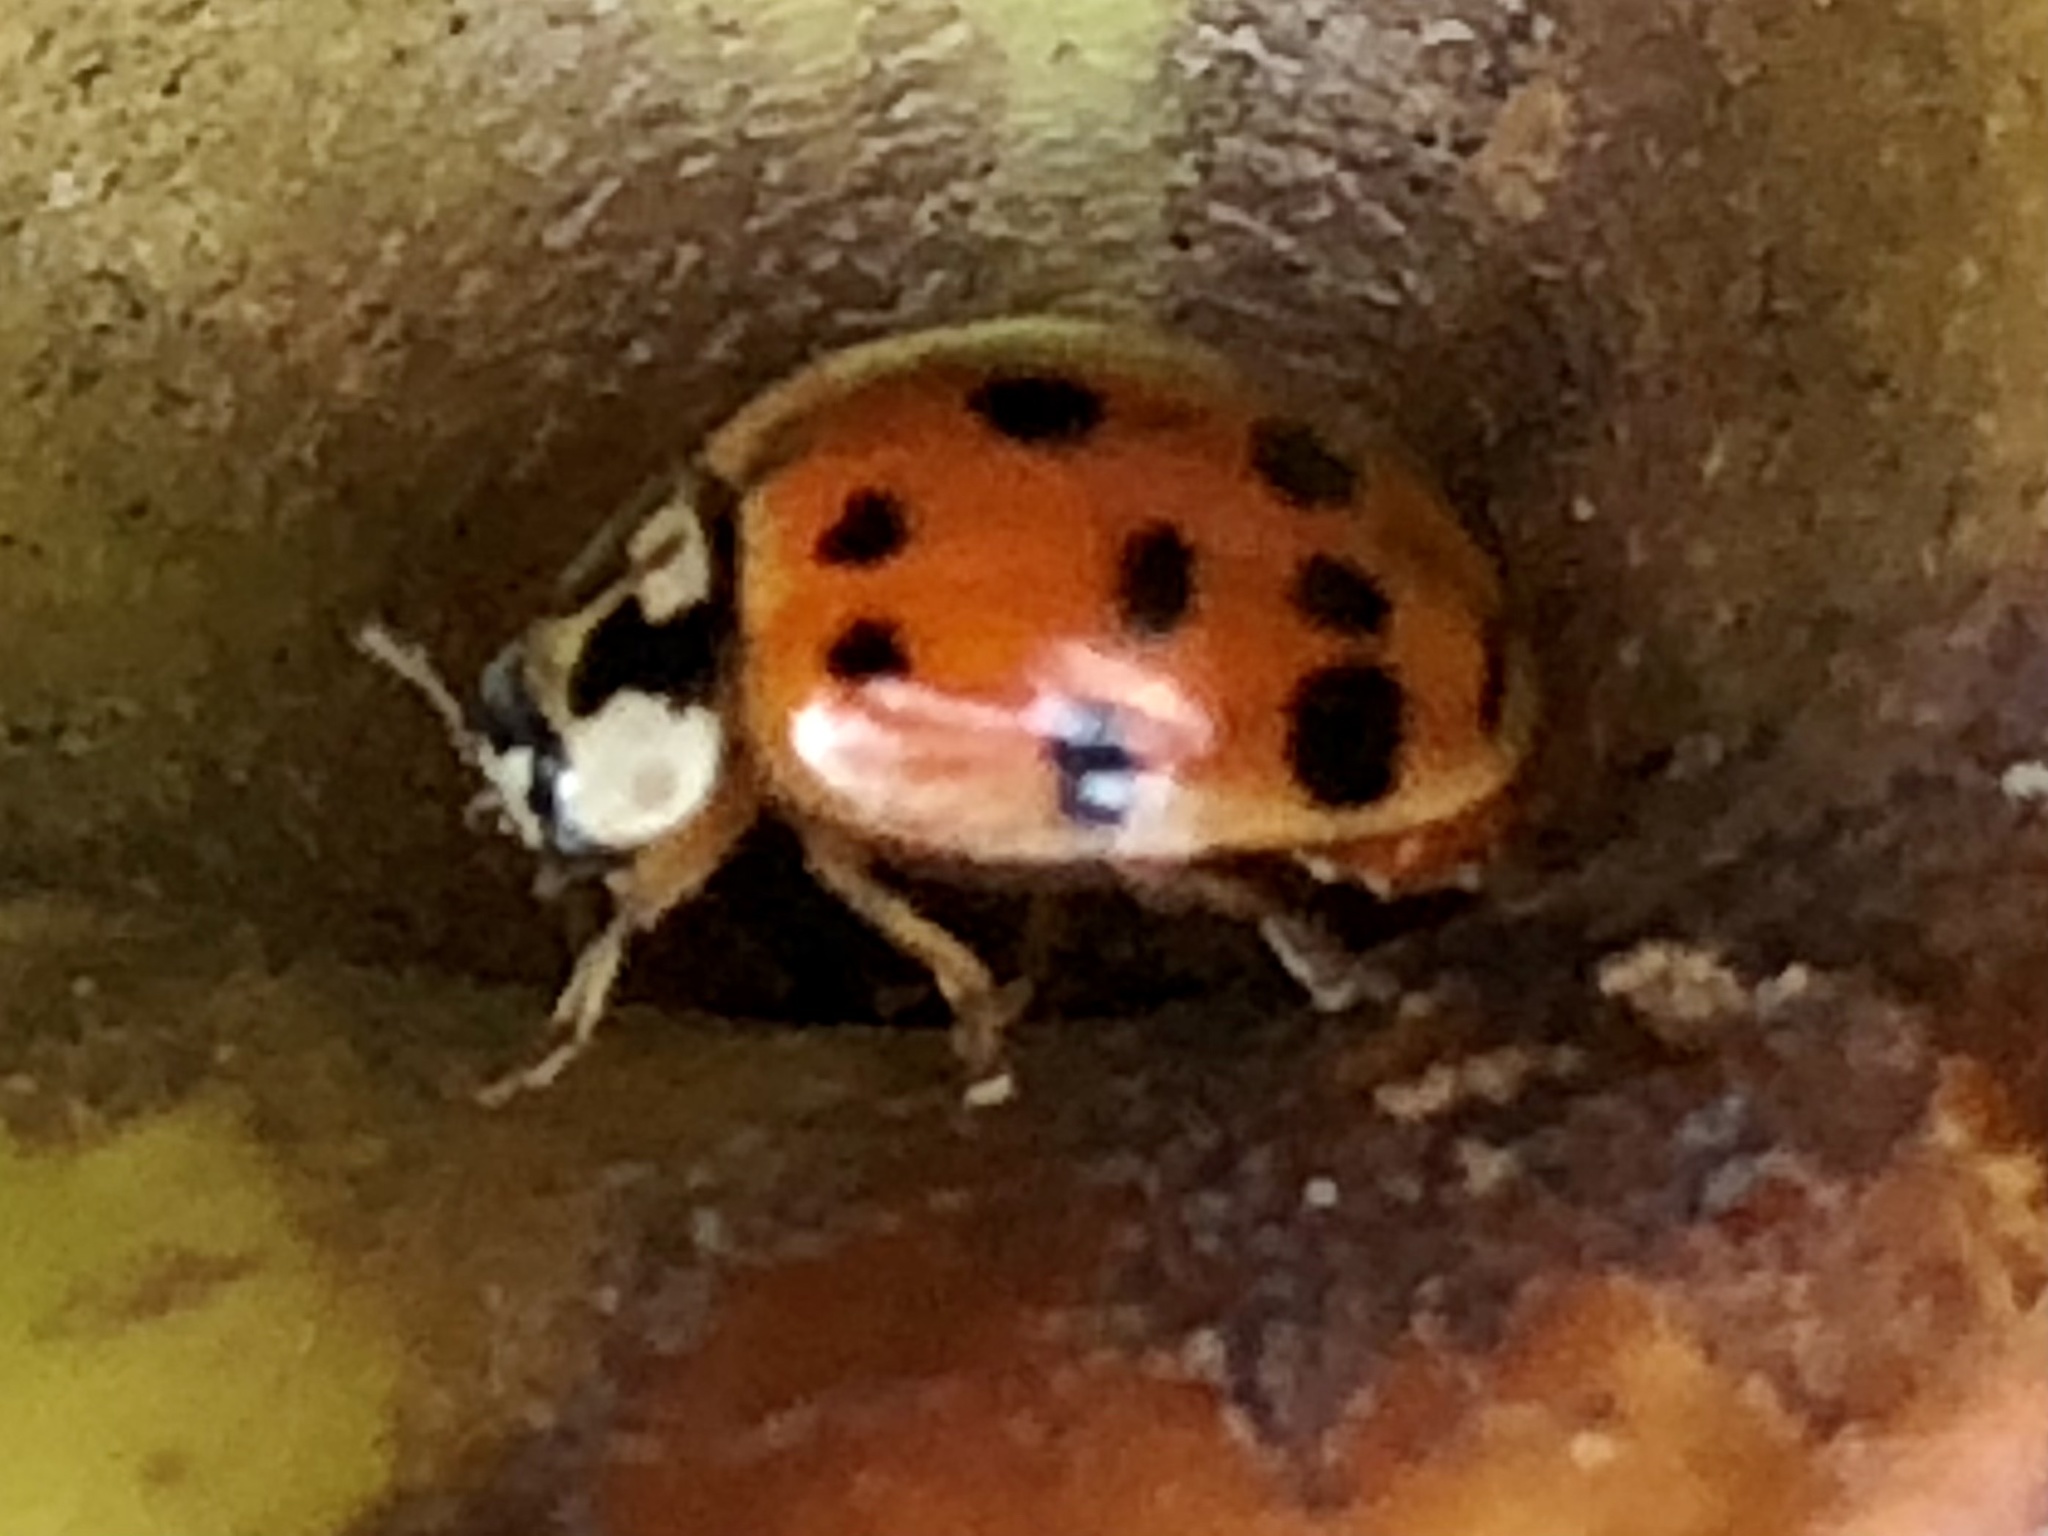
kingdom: Animalia
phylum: Arthropoda
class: Insecta
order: Coleoptera
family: Coccinellidae
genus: Harmonia
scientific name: Harmonia axyridis
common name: Harlequin ladybird
